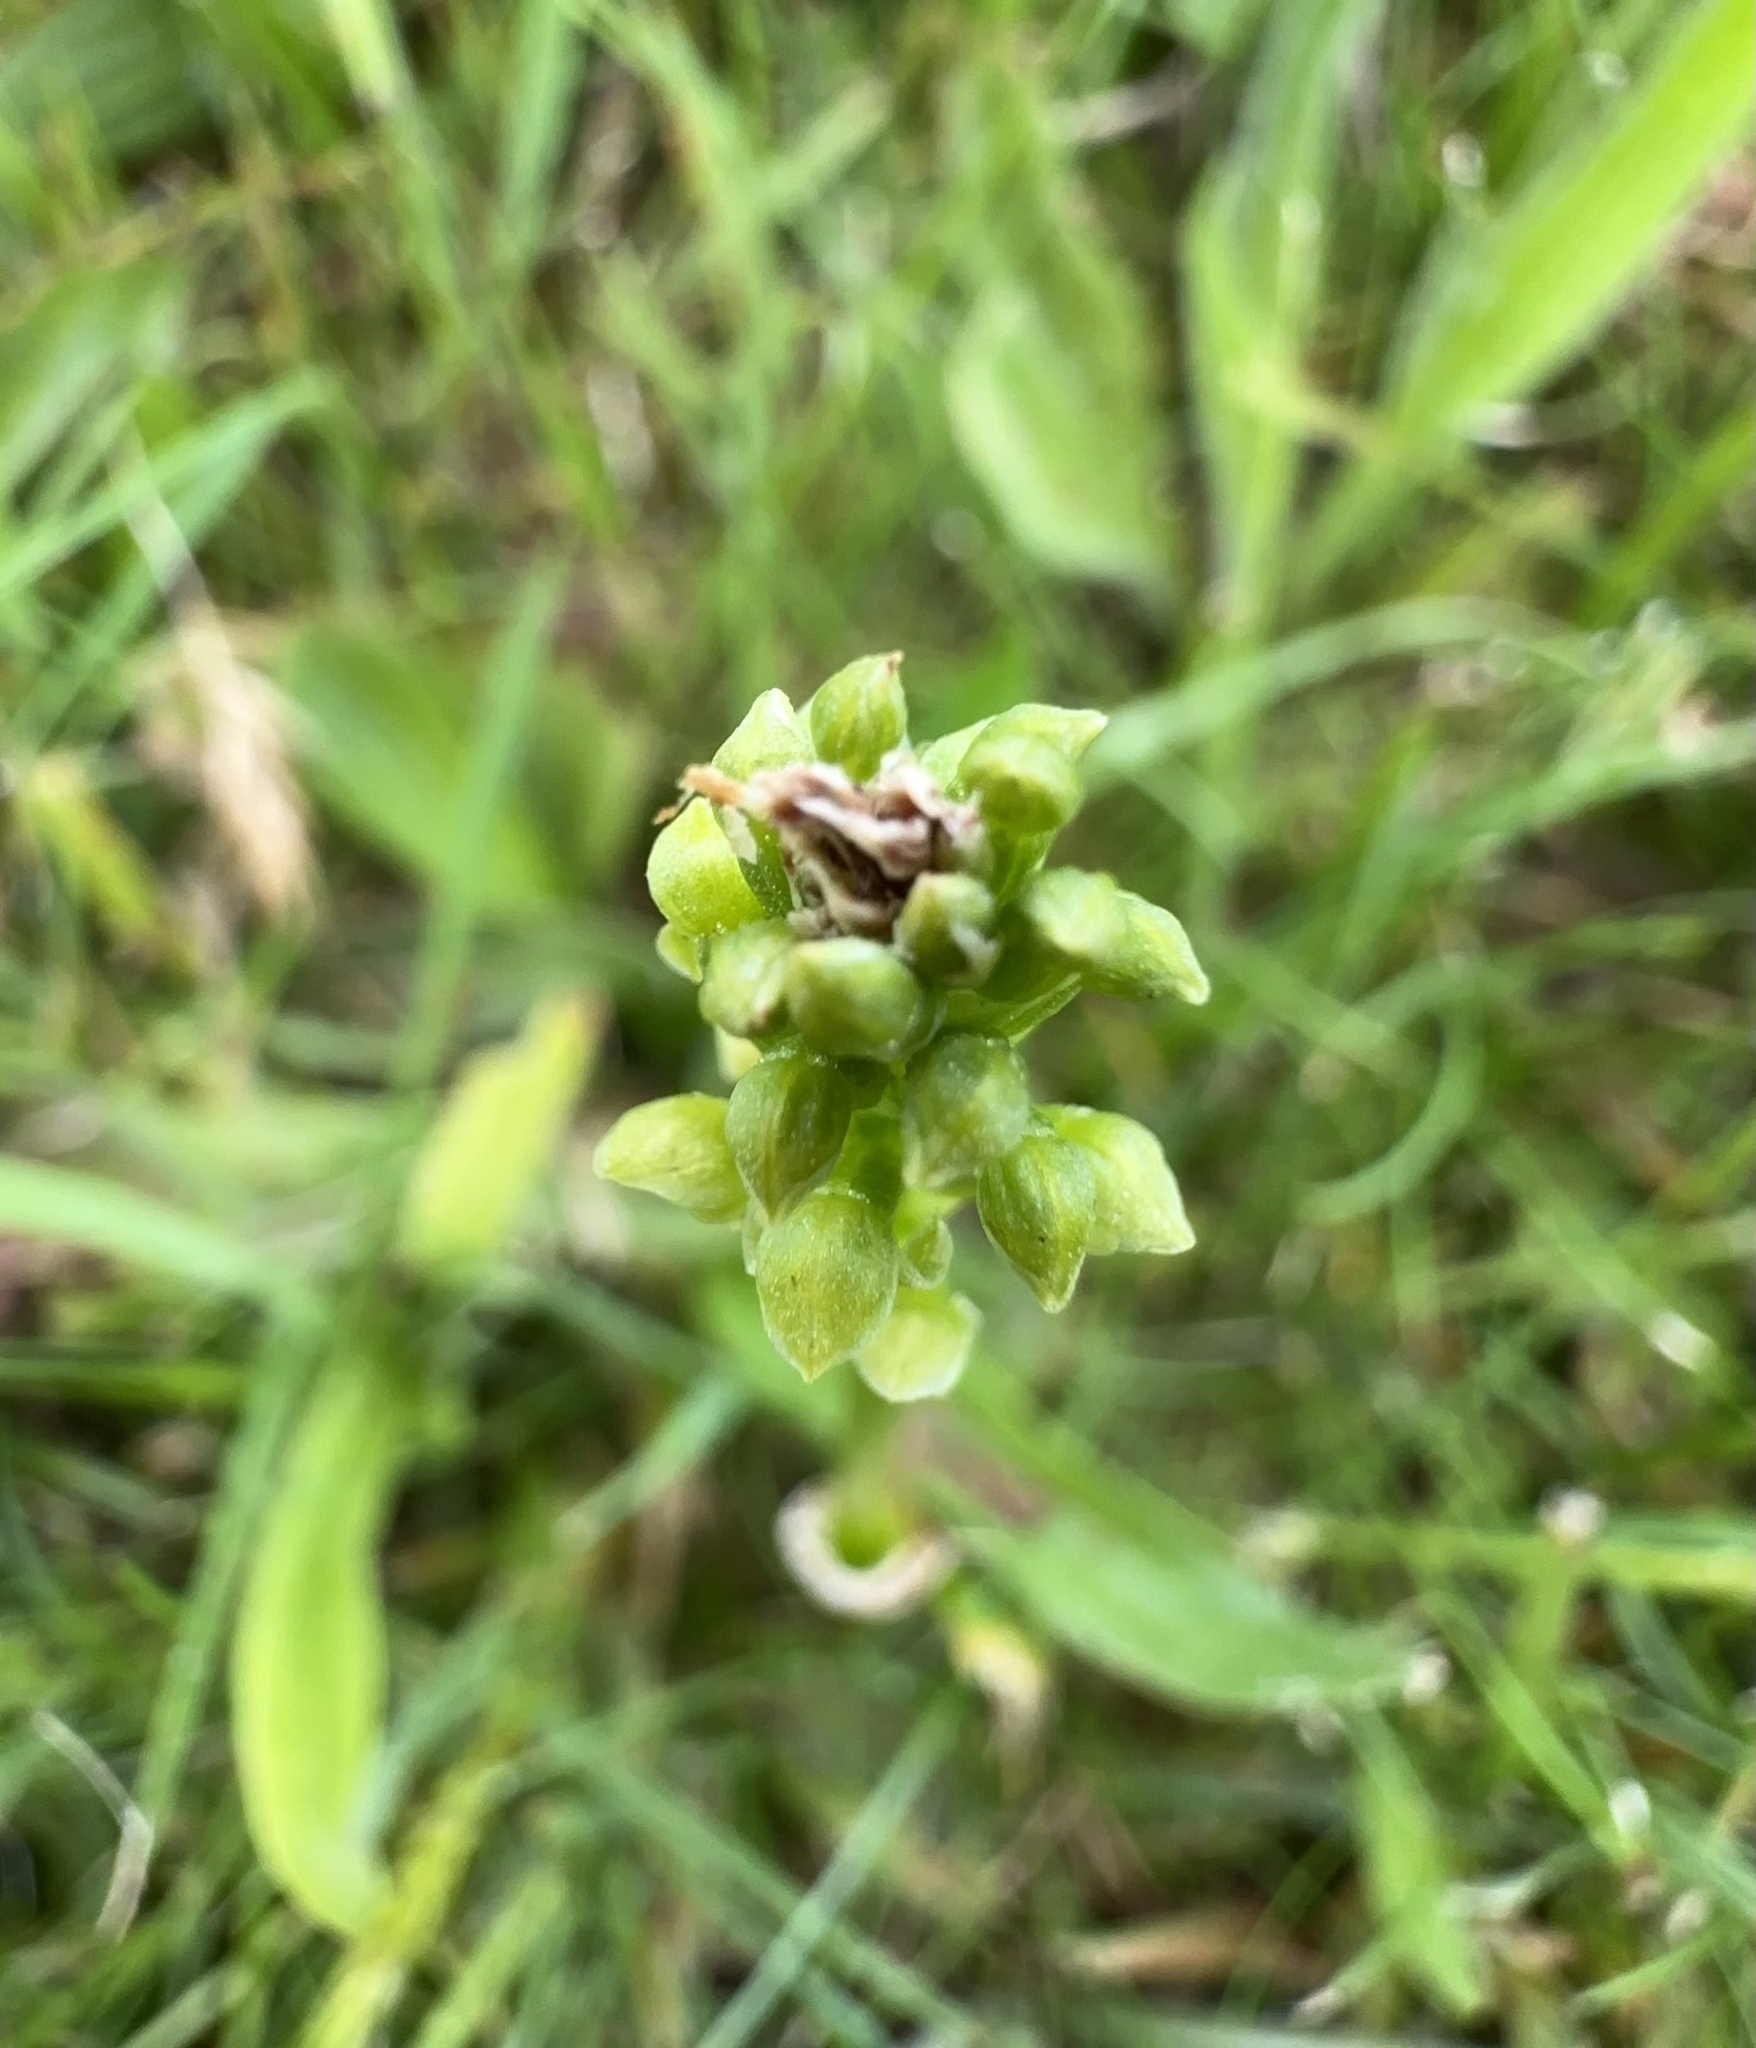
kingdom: Plantae
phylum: Tracheophyta
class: Liliopsida
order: Asparagales
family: Orchidaceae
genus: Microtis
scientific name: Microtis unifolia
